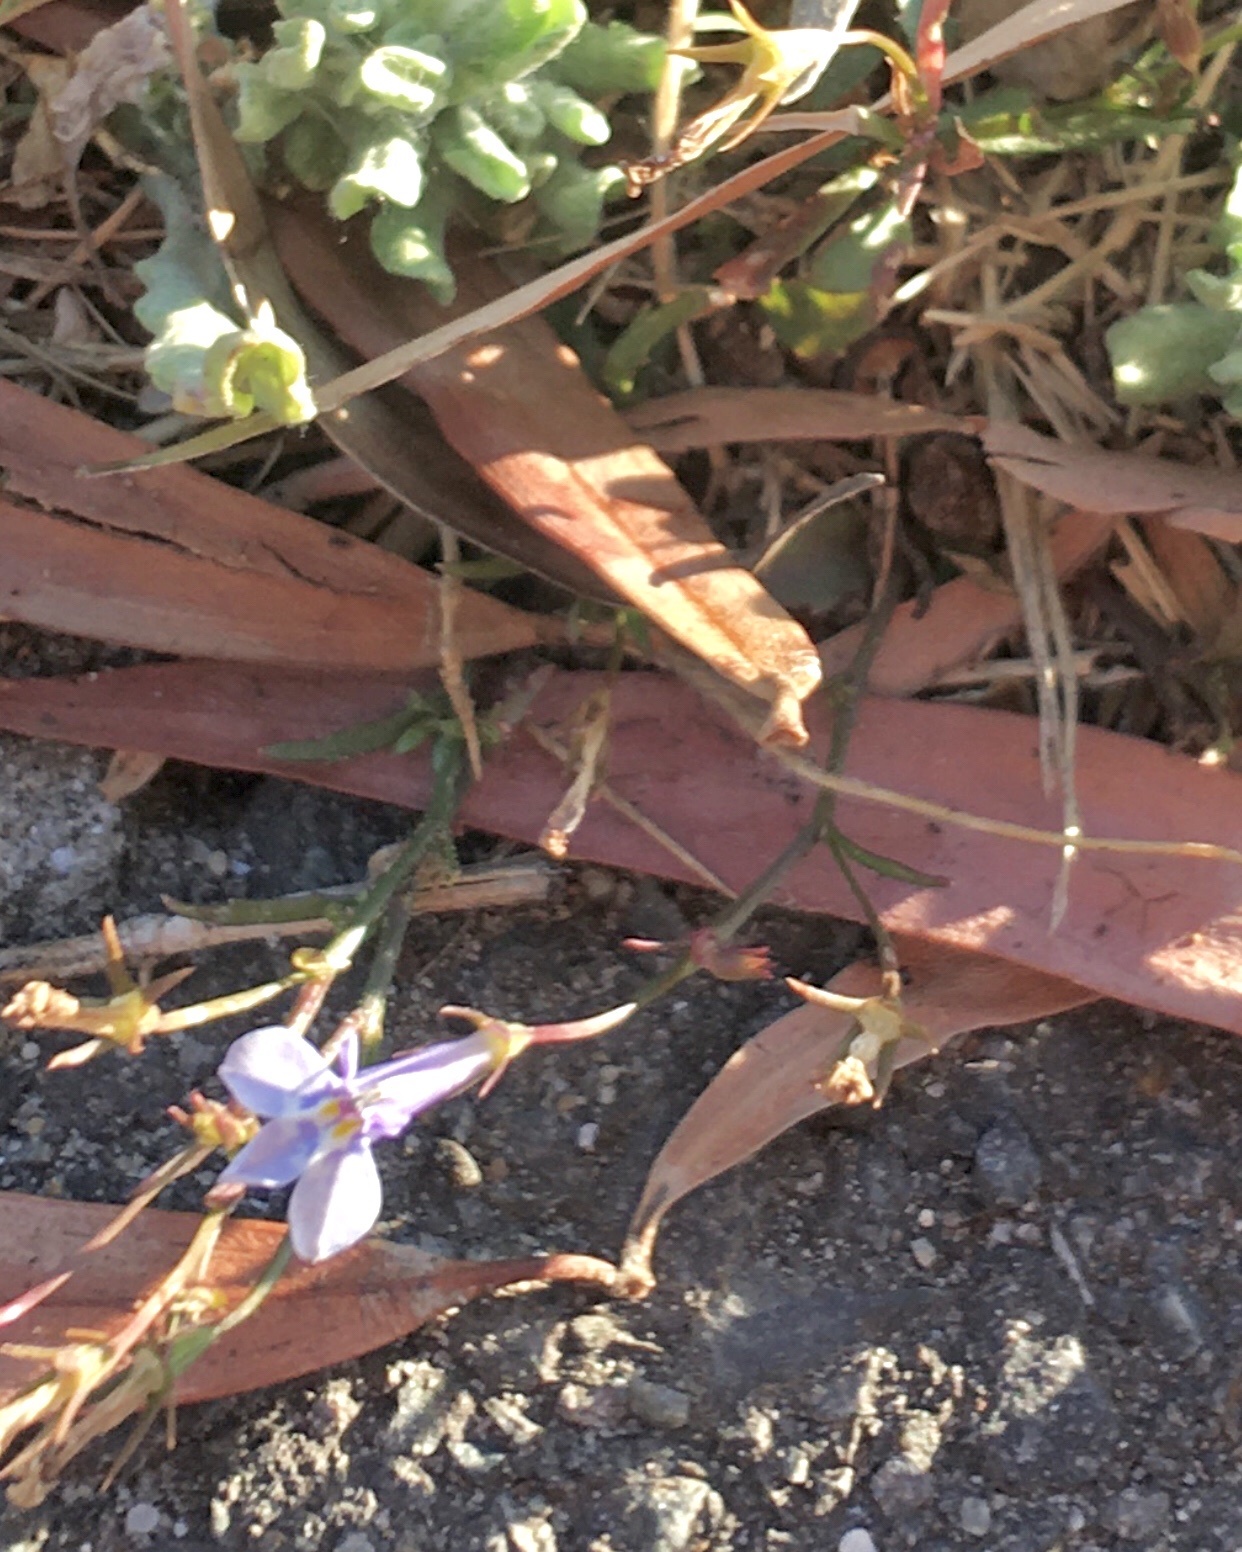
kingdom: Plantae
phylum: Tracheophyta
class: Magnoliopsida
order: Asterales
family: Campanulaceae
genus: Lobelia
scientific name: Lobelia erinus
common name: Edging lobelia
